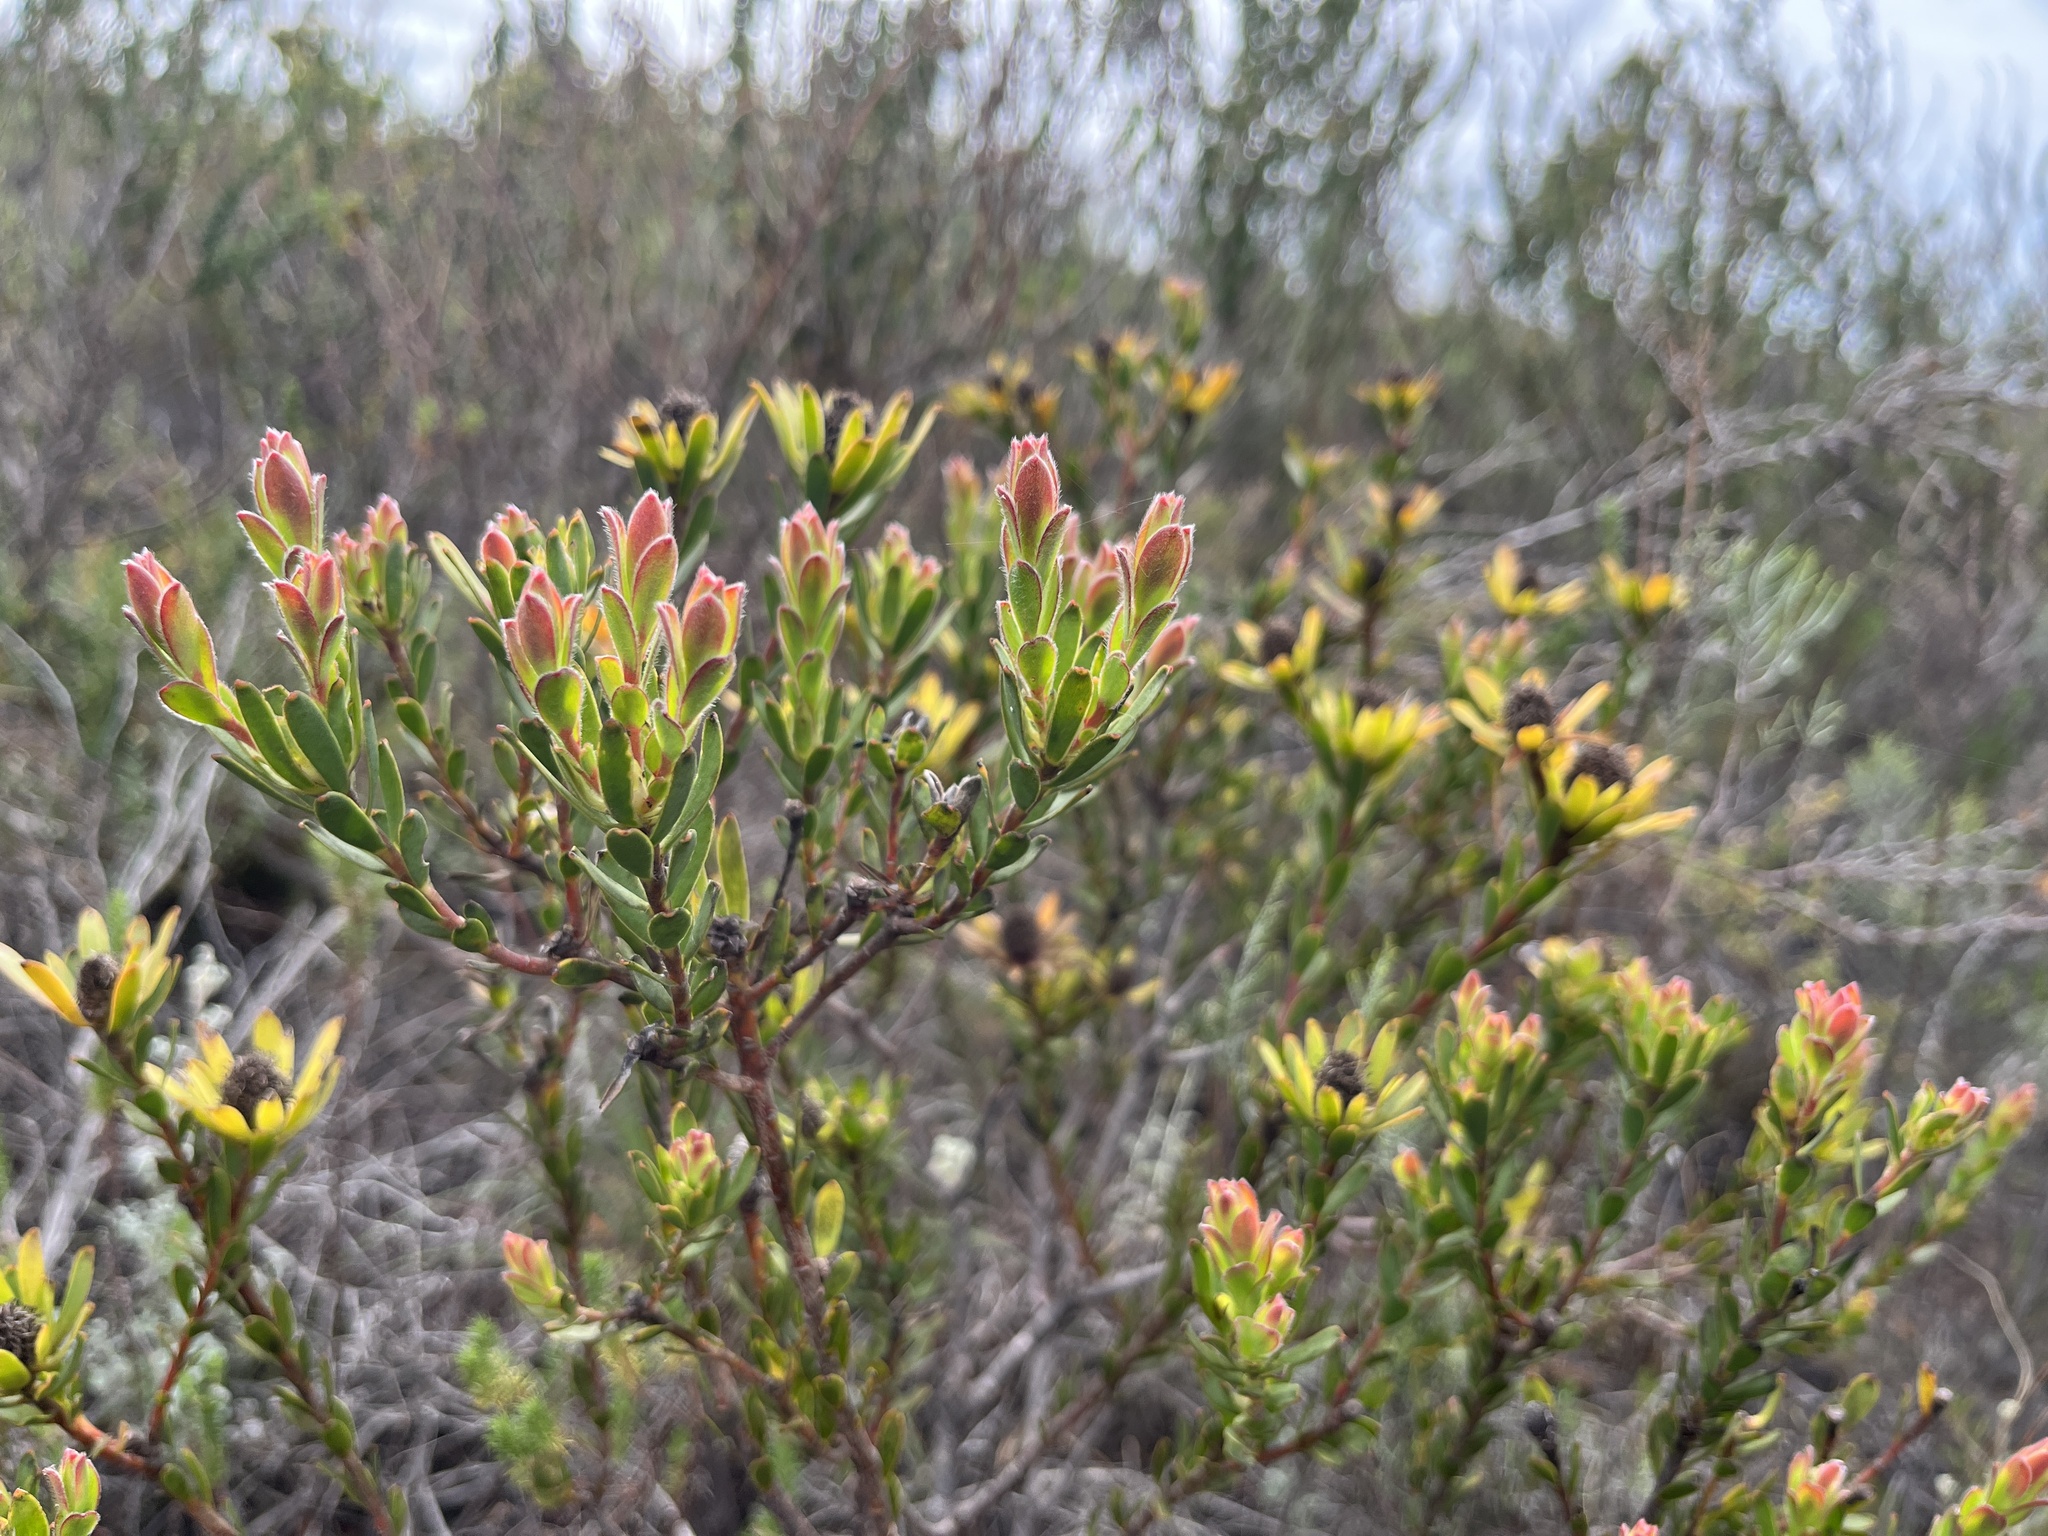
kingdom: Plantae
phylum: Tracheophyta
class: Magnoliopsida
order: Proteales
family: Proteaceae
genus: Leucadendron
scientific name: Leucadendron stelligerum
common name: Agulhas conebush
